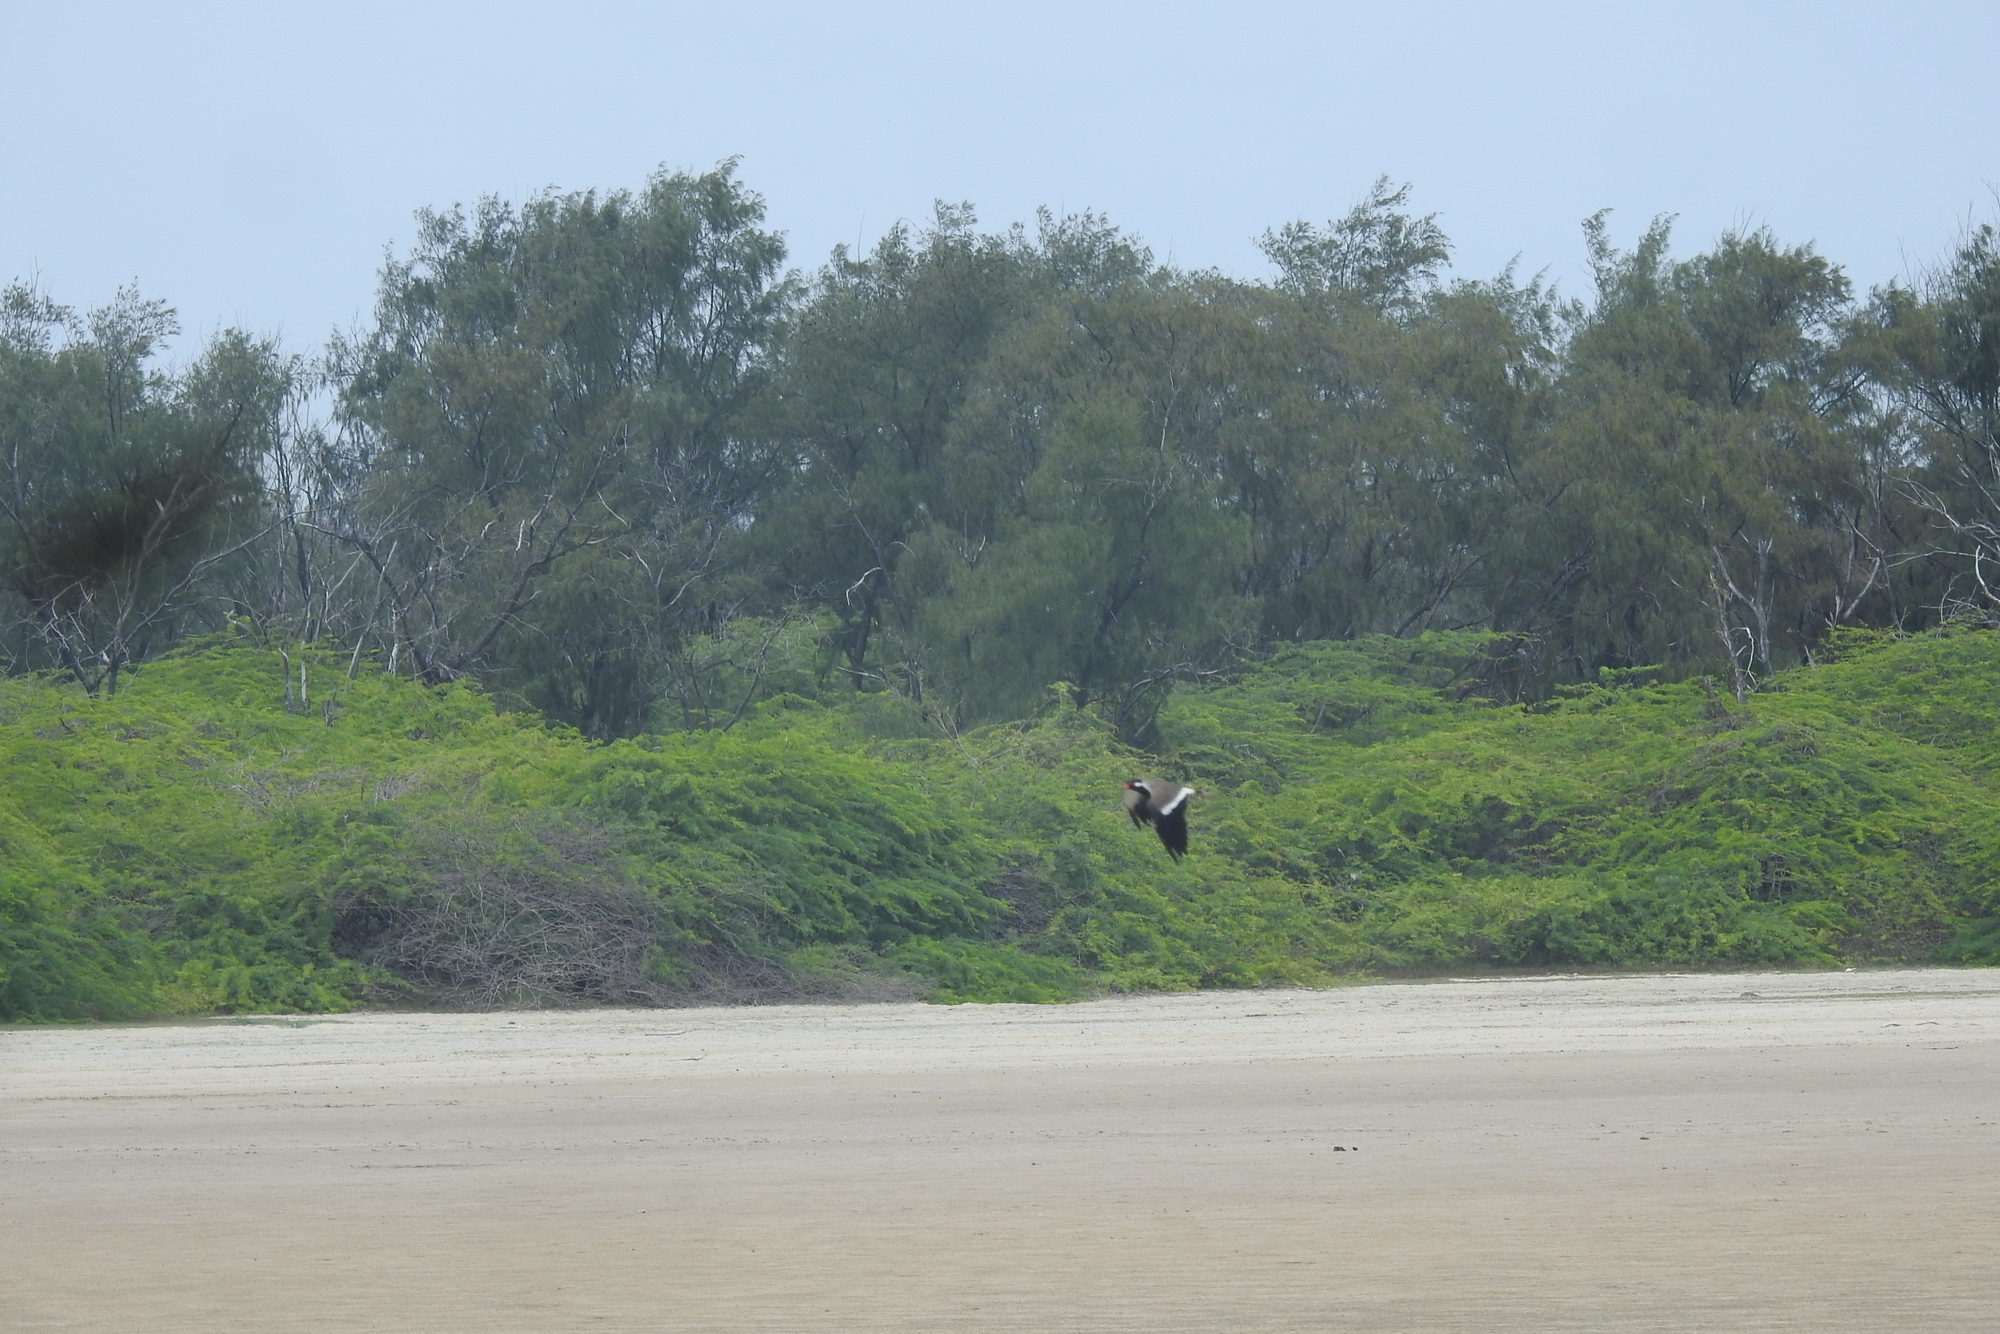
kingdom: Animalia
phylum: Chordata
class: Aves
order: Charadriiformes
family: Charadriidae
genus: Vanellus
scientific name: Vanellus indicus
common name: Red-wattled lapwing
